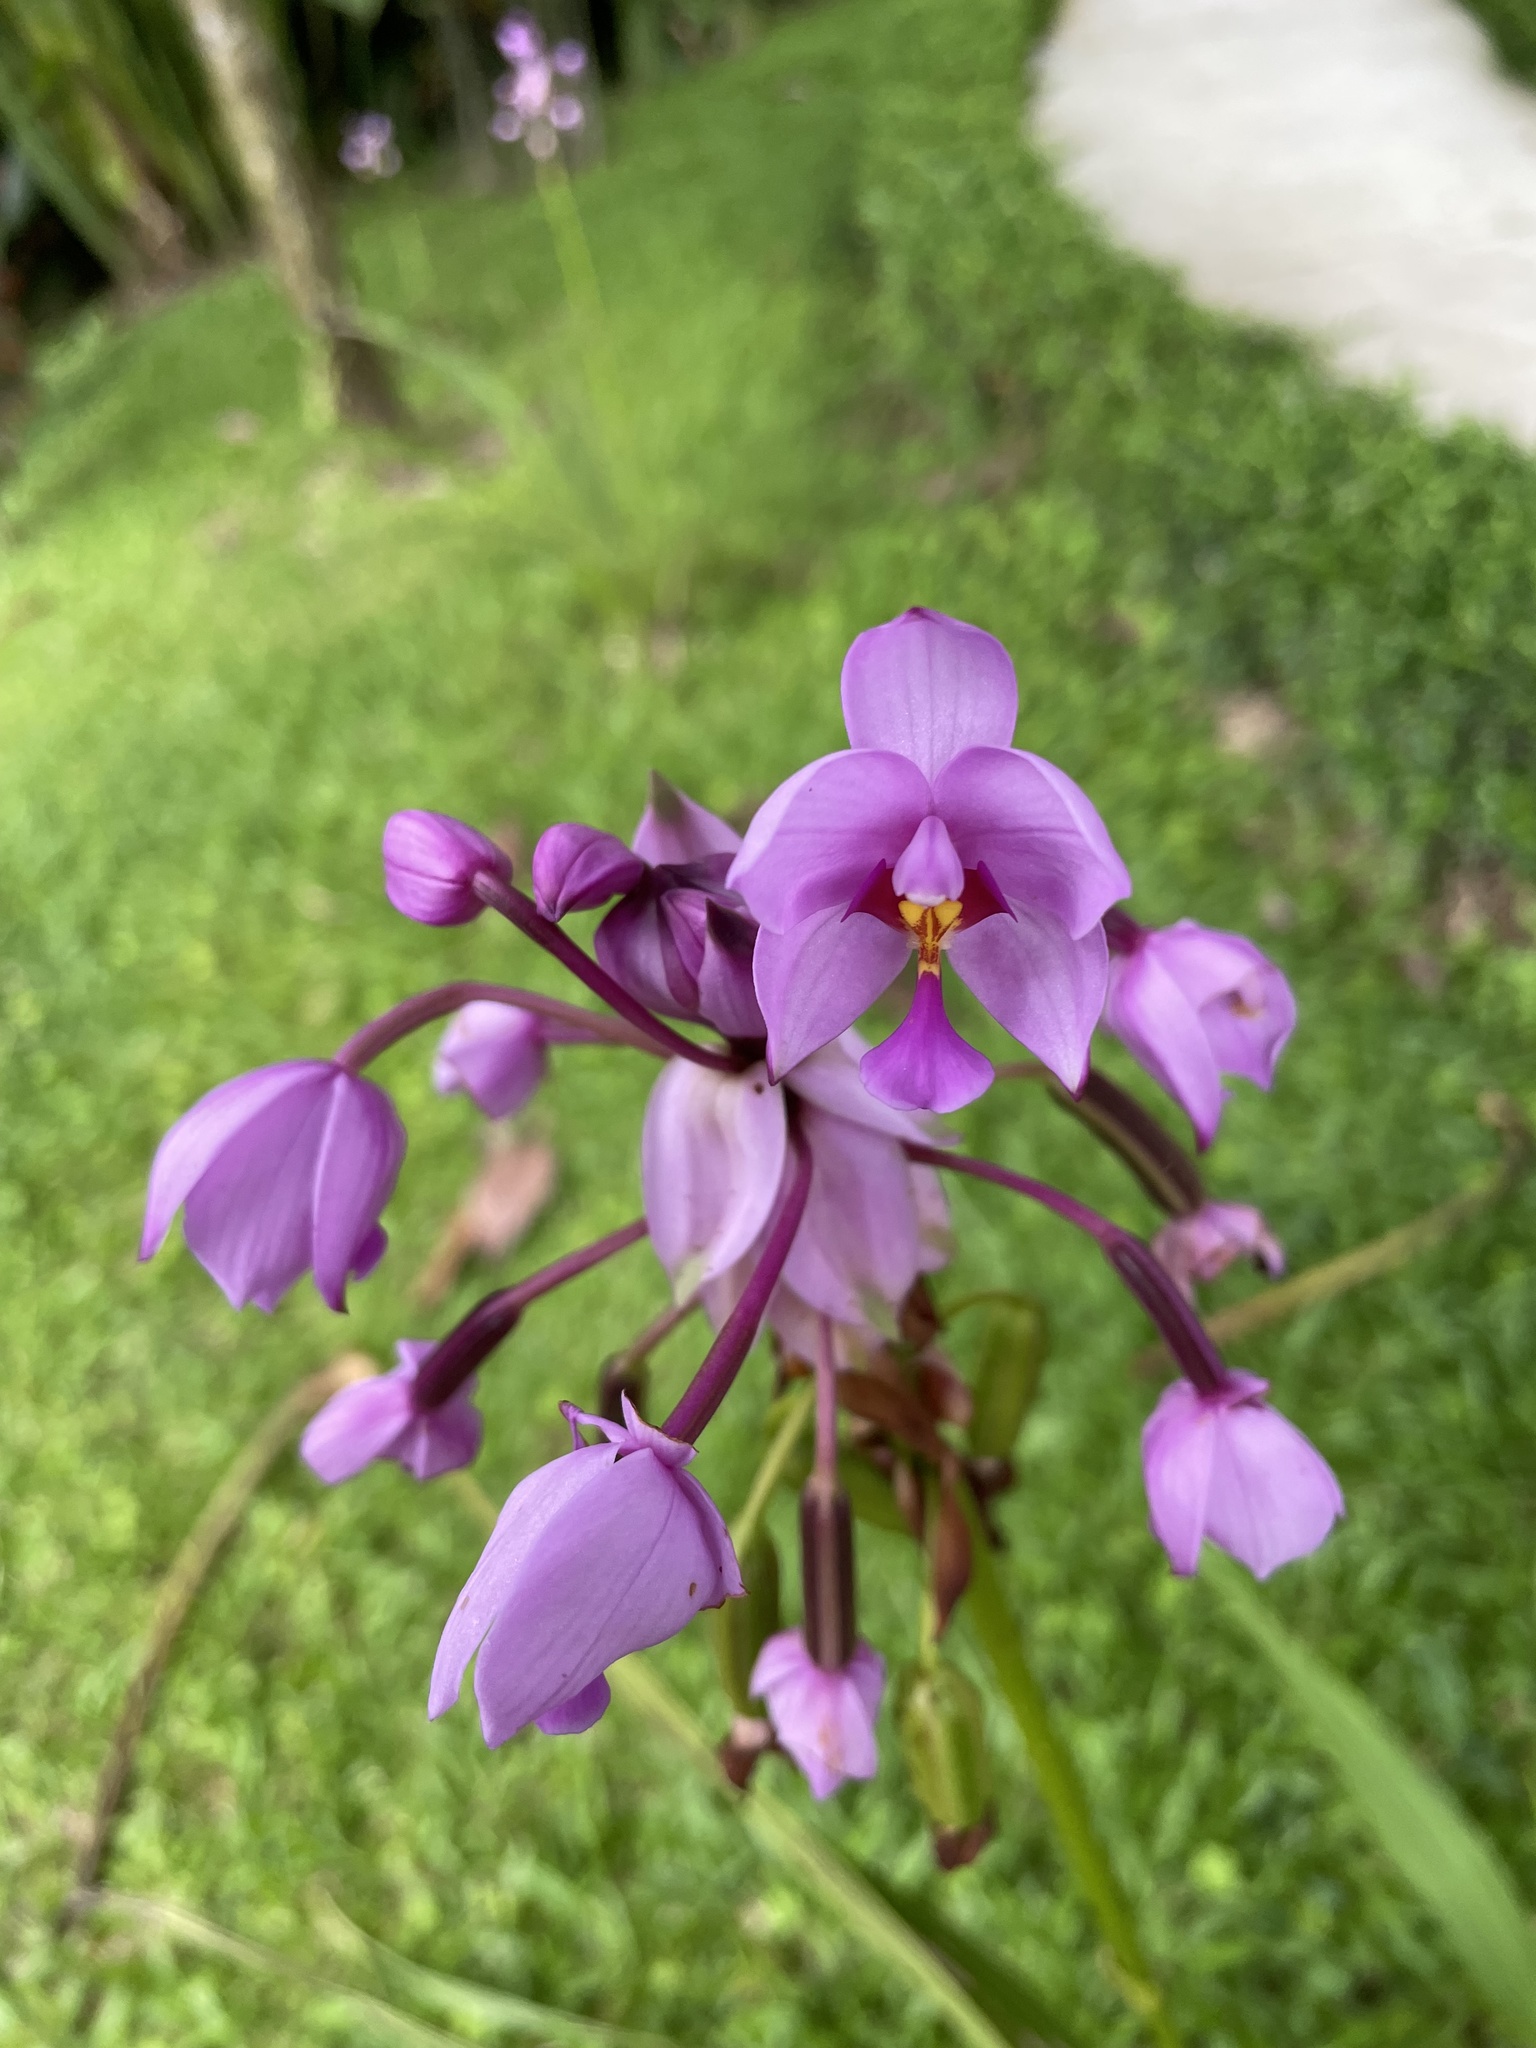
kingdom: Plantae
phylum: Tracheophyta
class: Liliopsida
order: Asparagales
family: Orchidaceae
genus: Spathoglottis
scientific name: Spathoglottis plicata
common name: Philippine ground orchid
